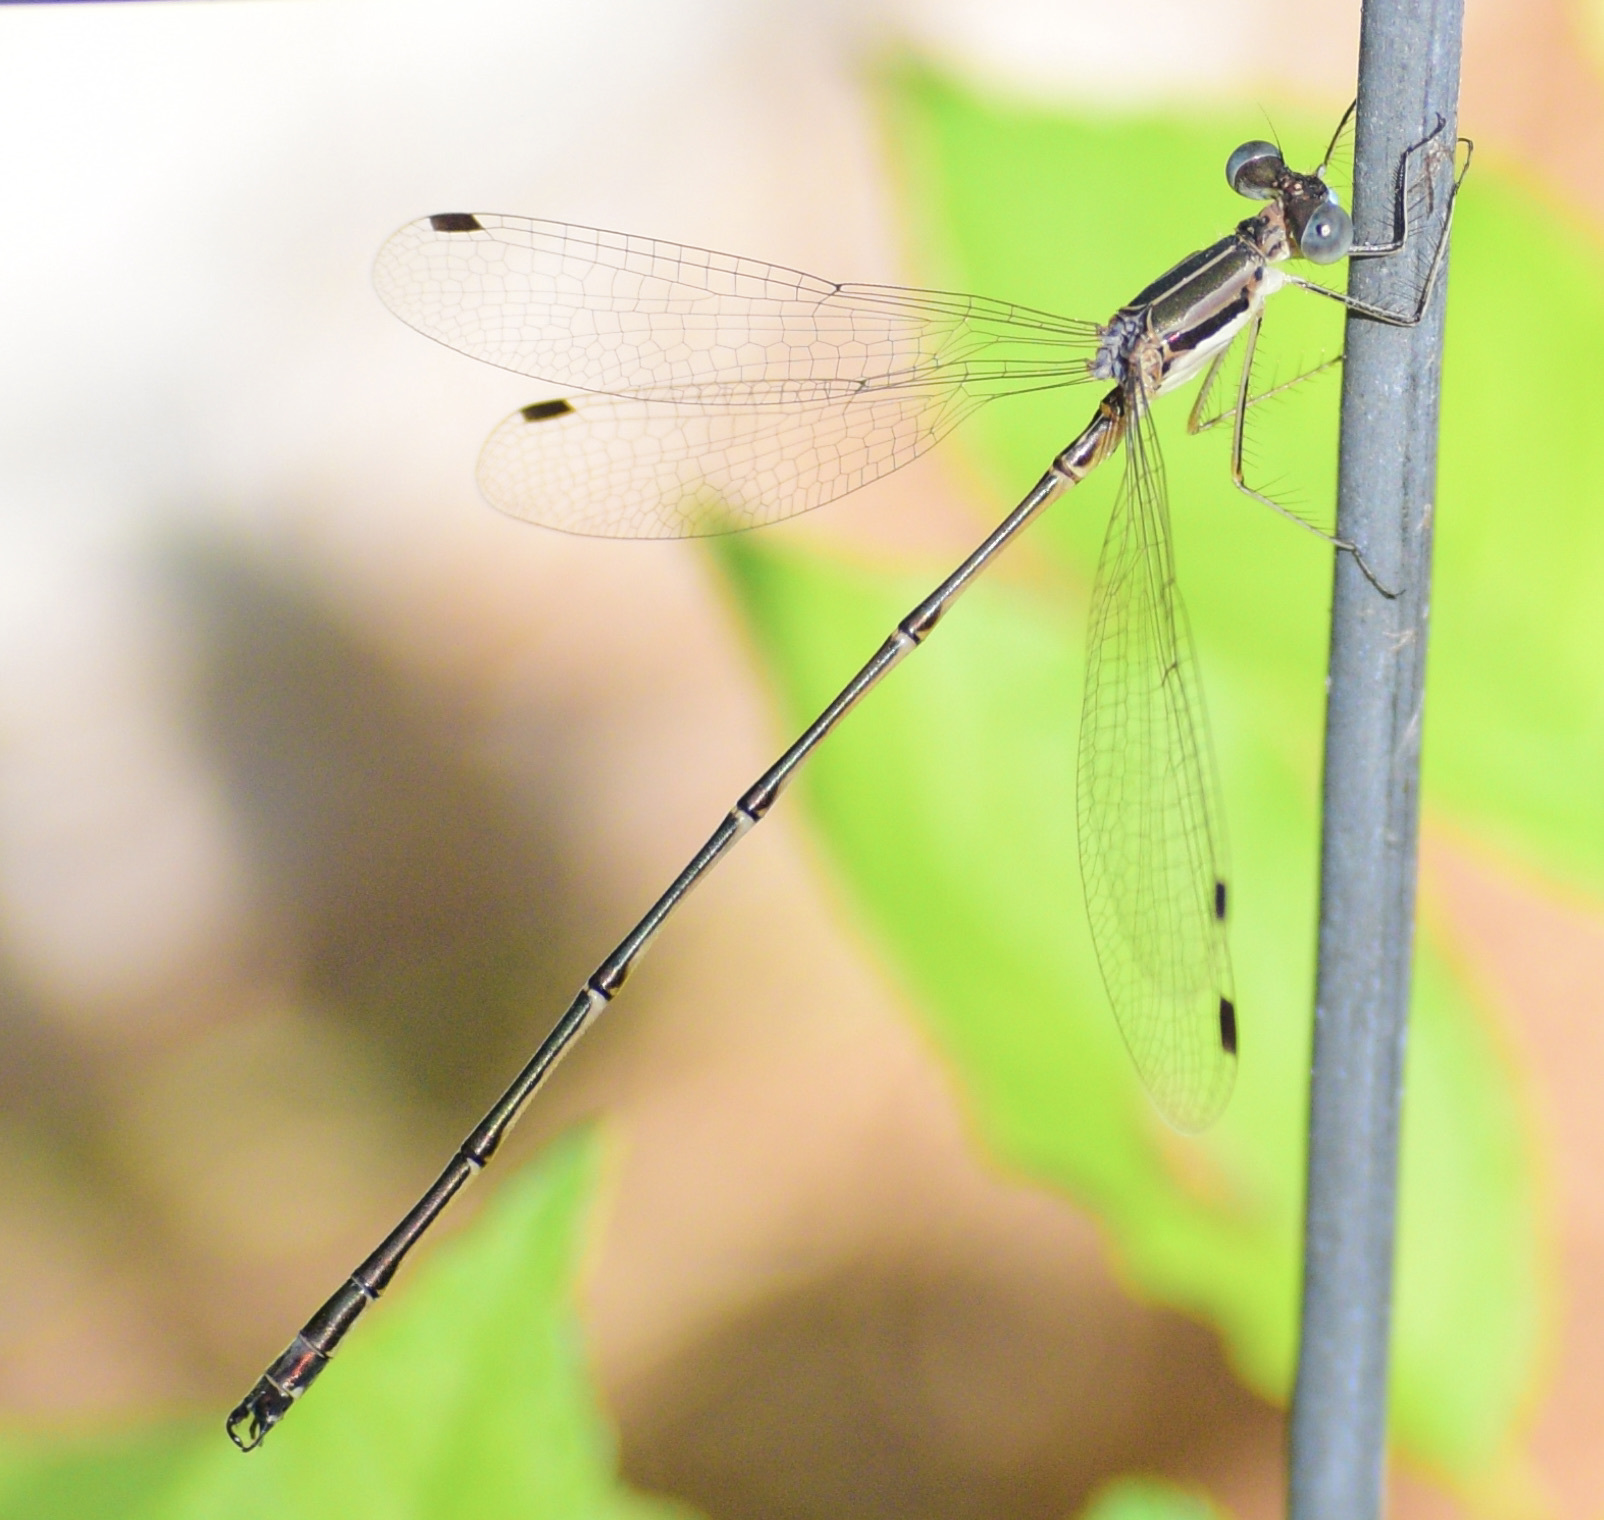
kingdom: Animalia
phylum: Arthropoda
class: Insecta
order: Odonata
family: Lestidae
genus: Lestes
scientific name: Lestes rectangularis
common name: Slender spreadwing
